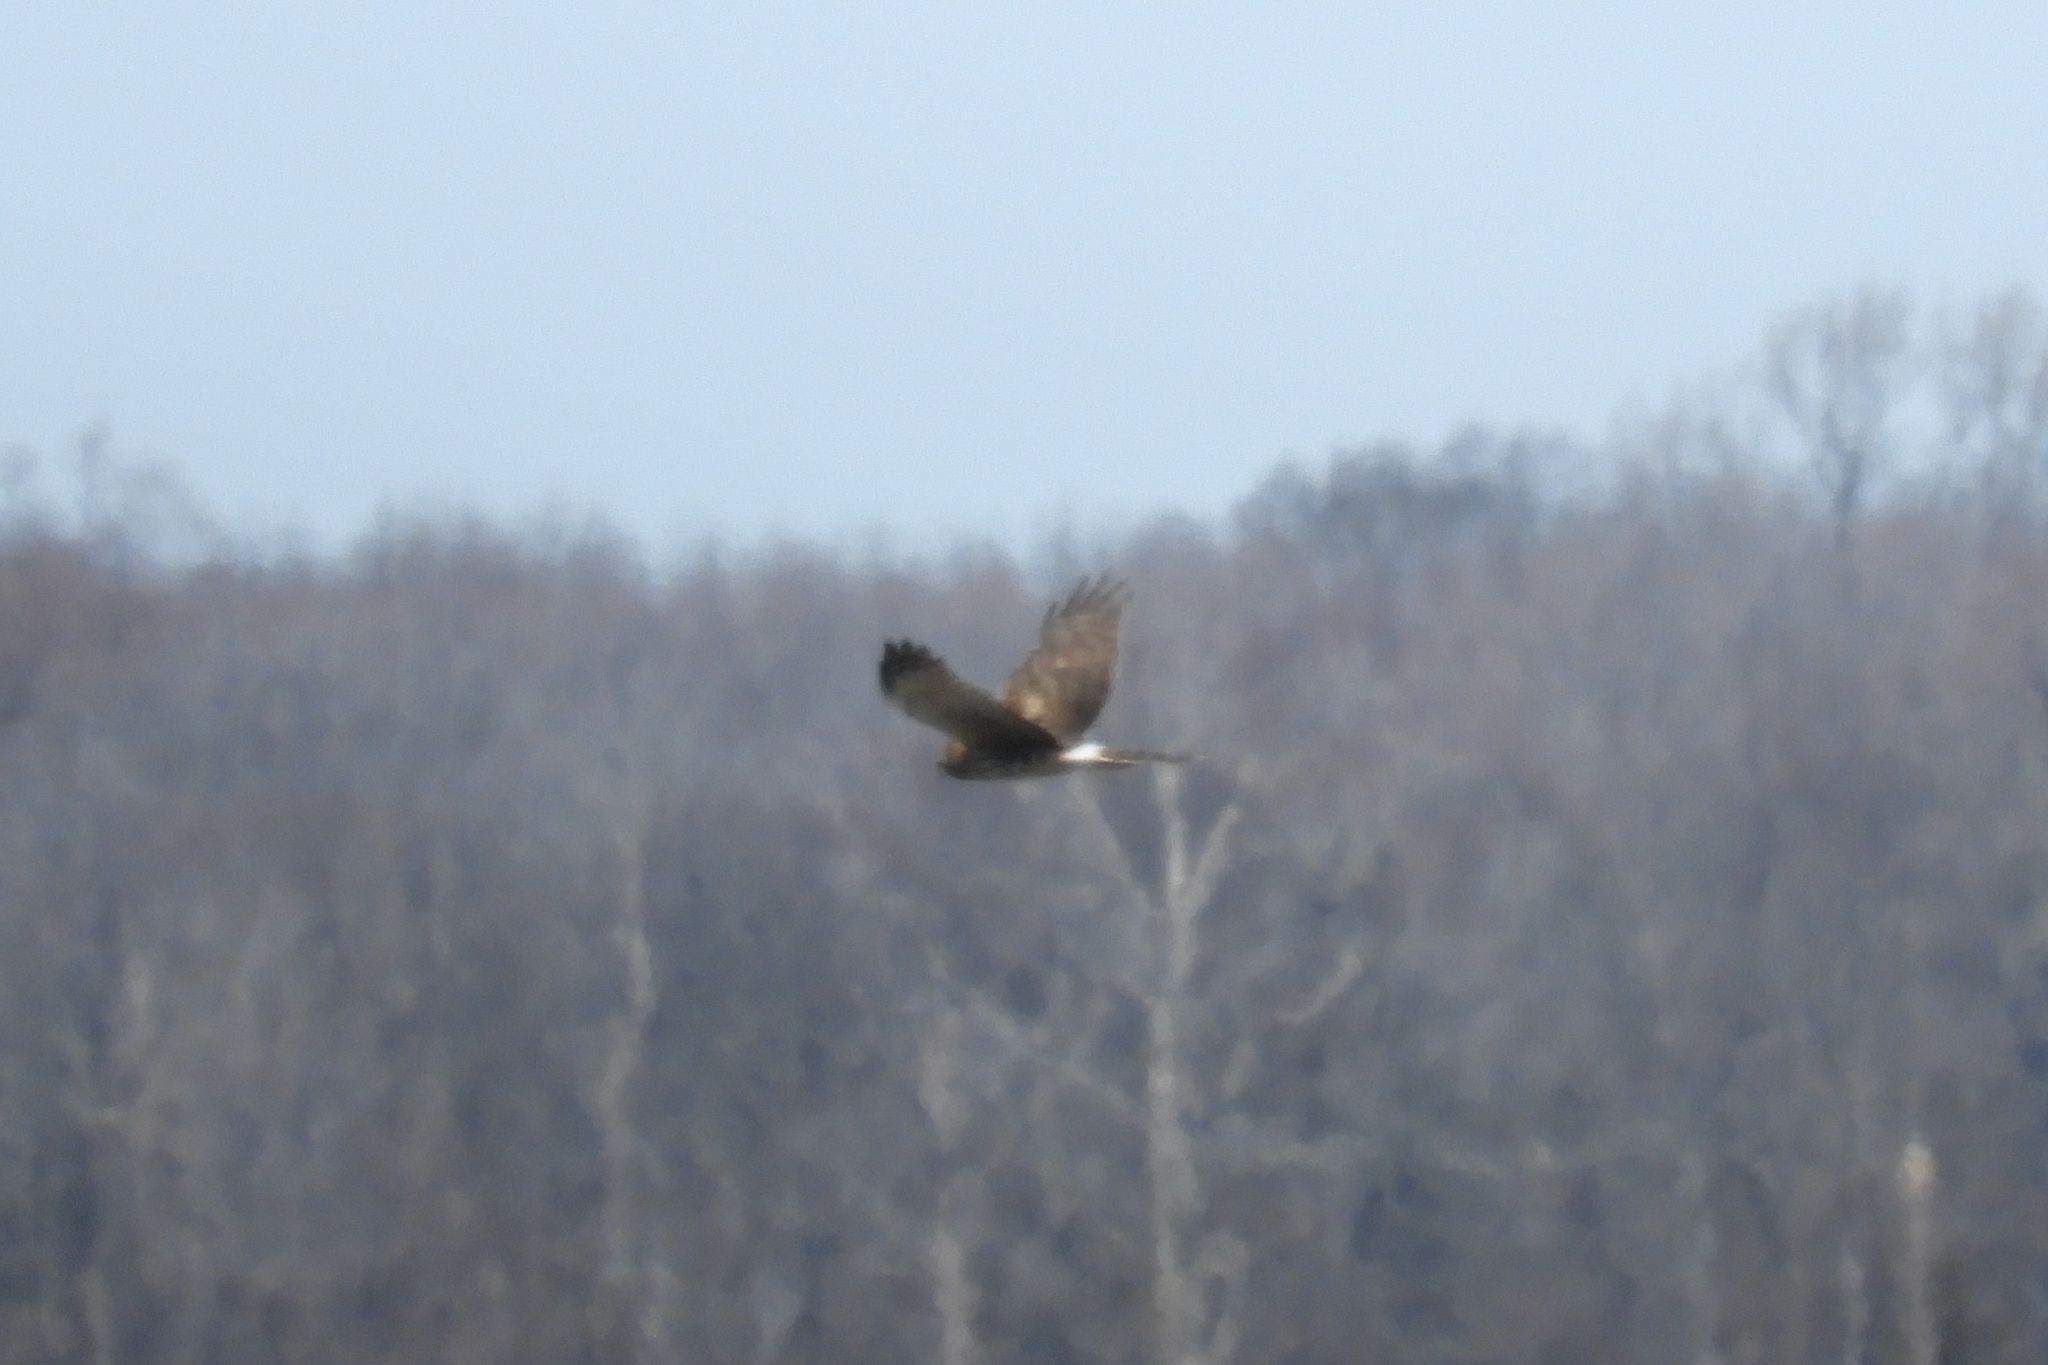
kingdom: Animalia
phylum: Chordata
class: Aves
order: Accipitriformes
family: Accipitridae
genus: Circus
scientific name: Circus cyaneus
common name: Hen harrier
